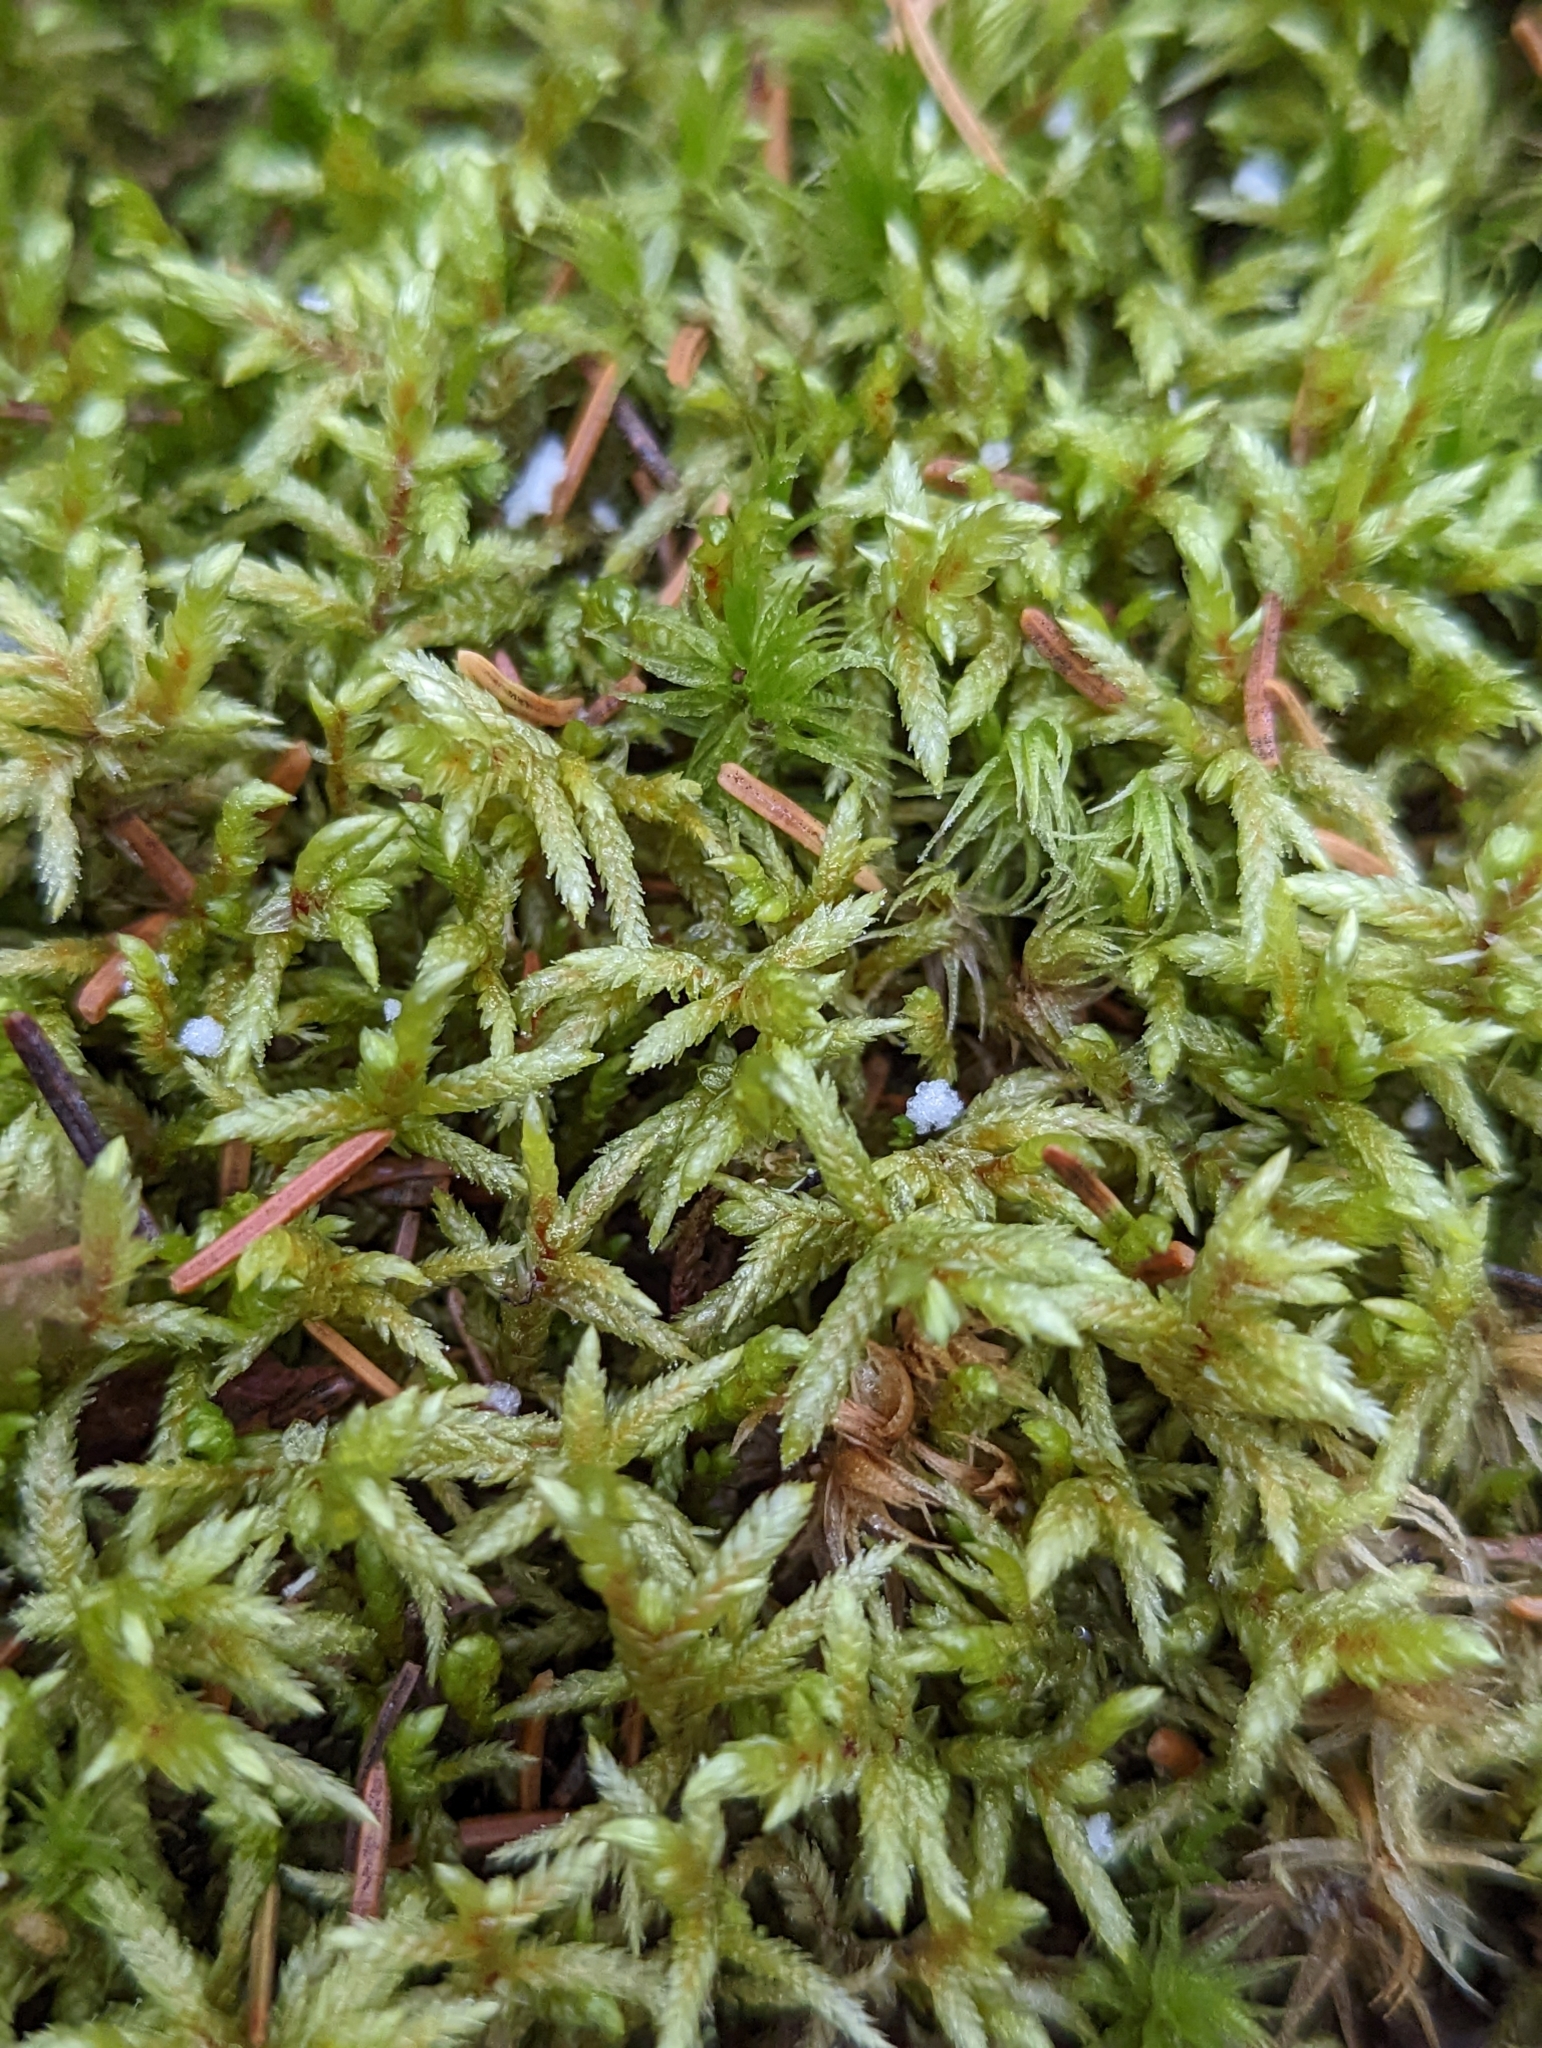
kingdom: Plantae
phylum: Bryophyta
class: Bryopsida
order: Hypnales
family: Hylocomiaceae
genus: Pleurozium
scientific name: Pleurozium schreberi
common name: Red-stemmed feather moss
